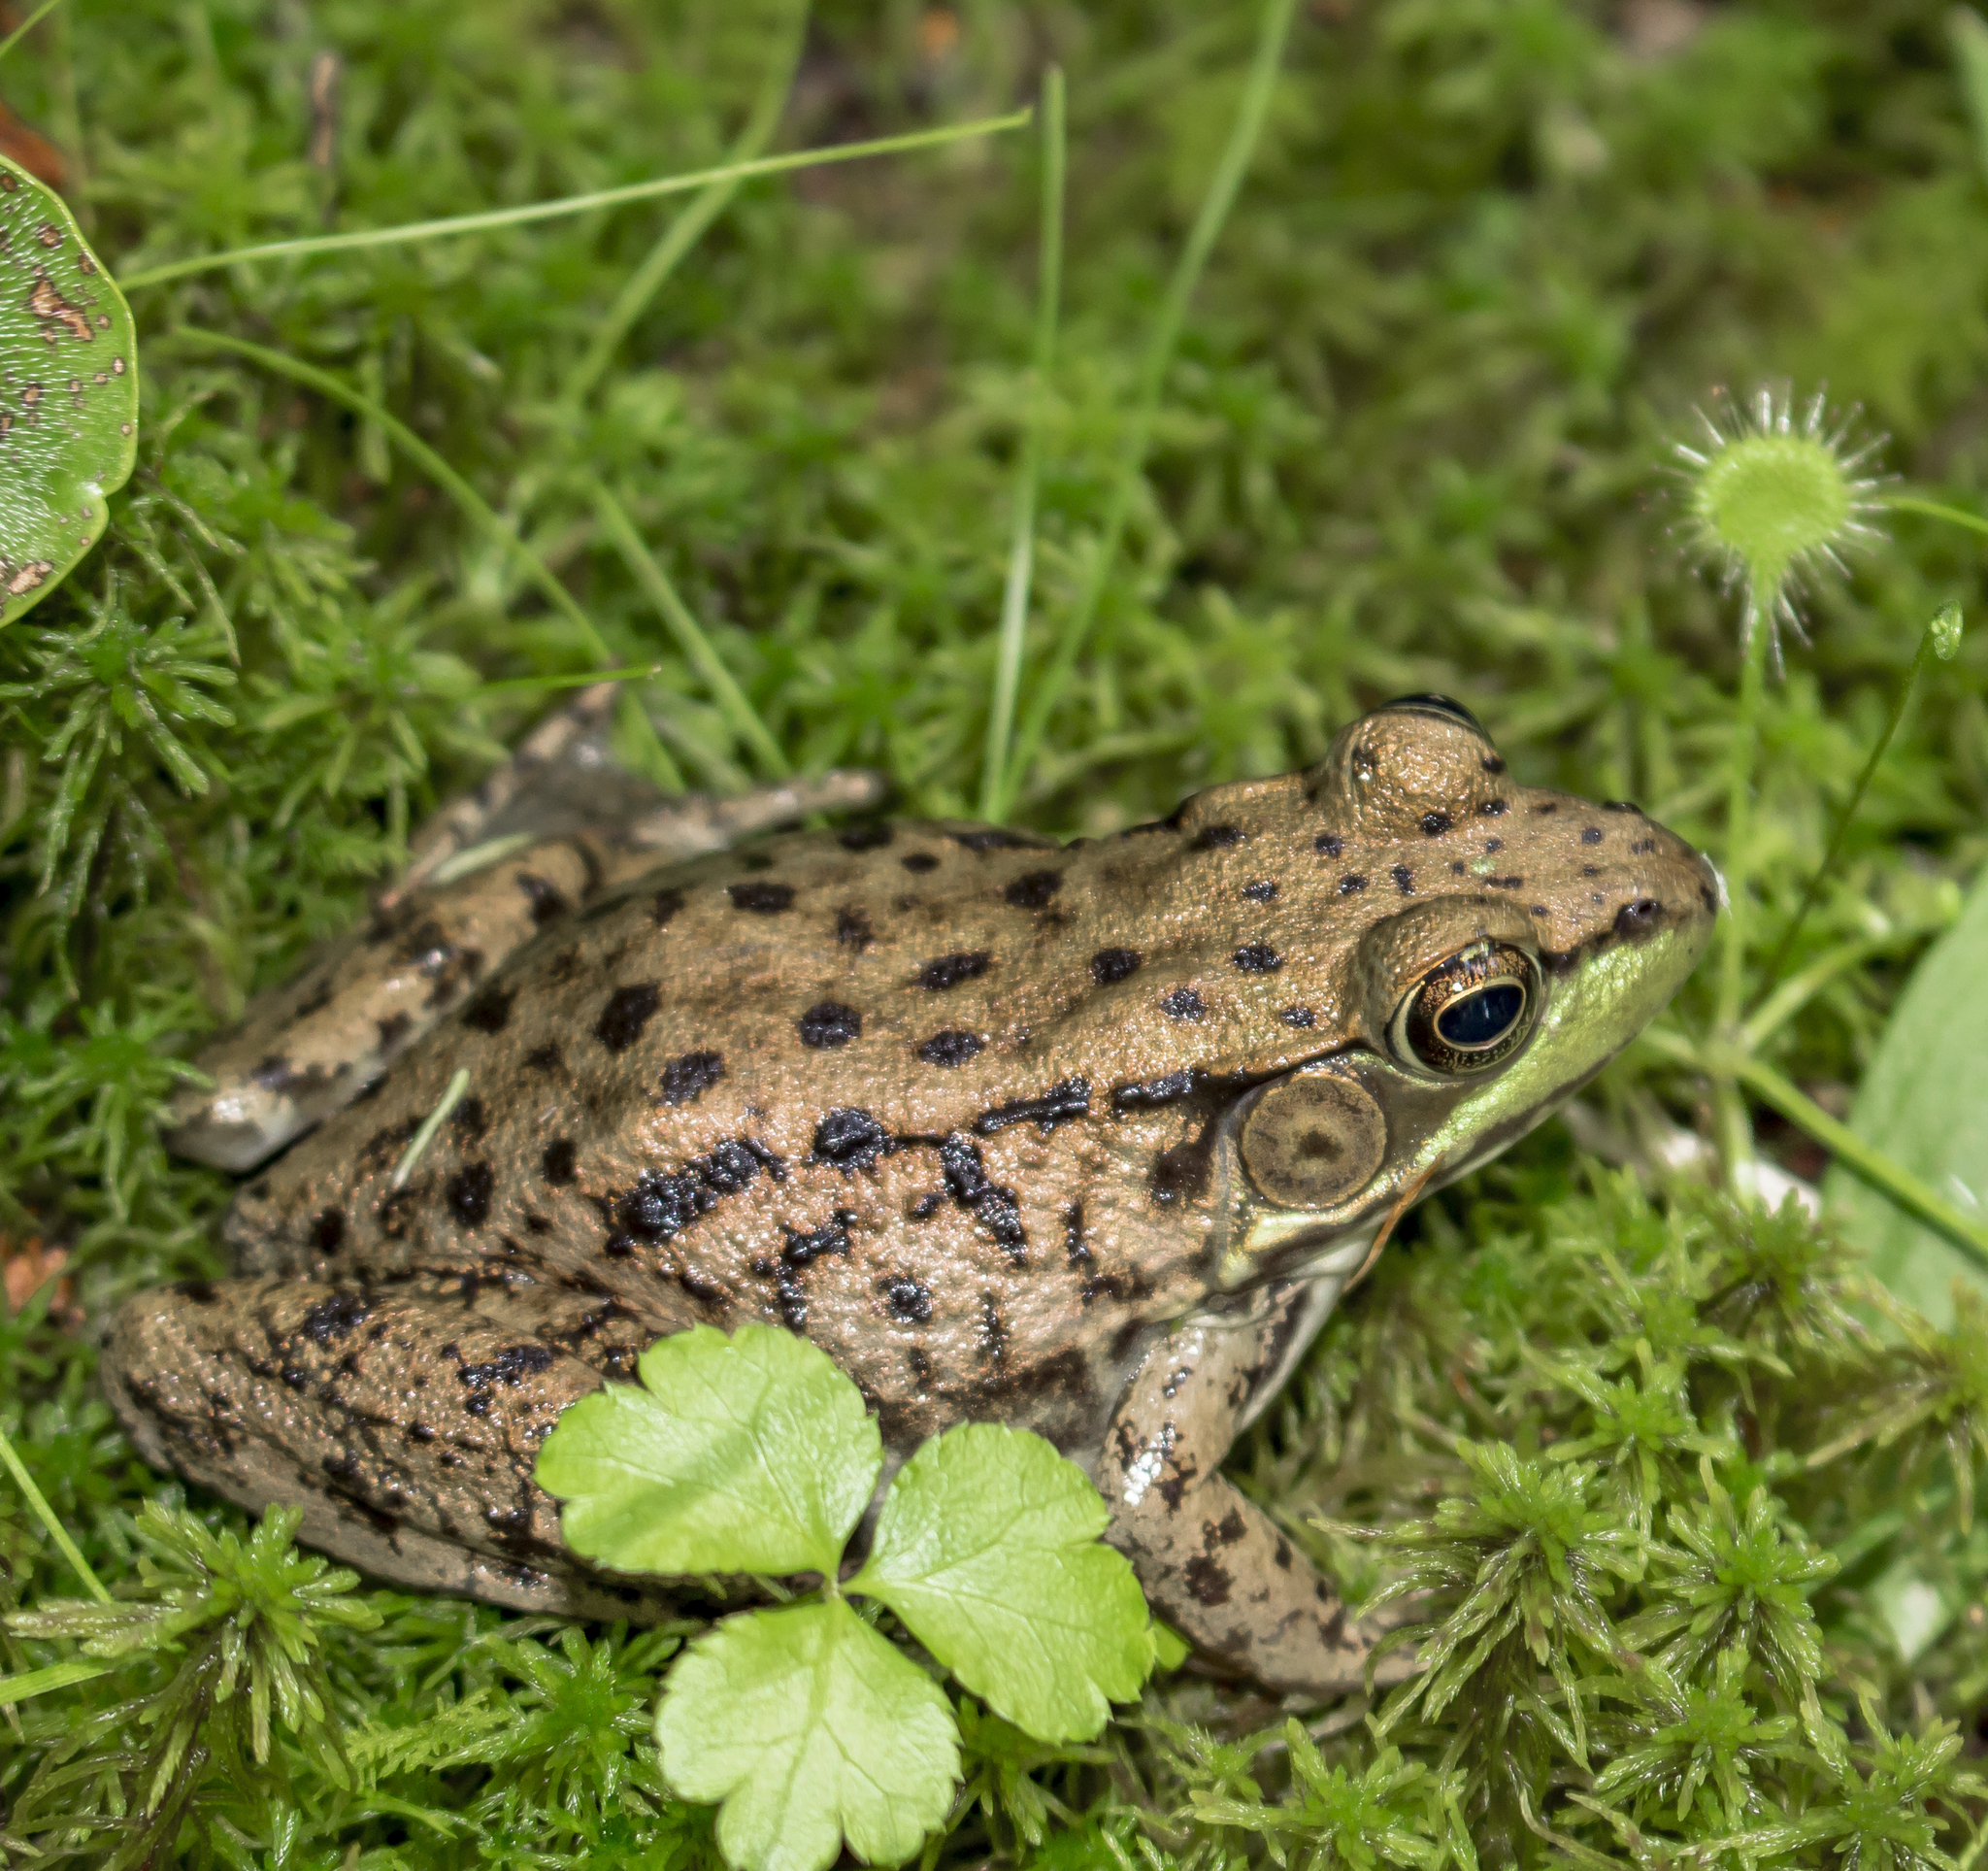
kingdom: Animalia
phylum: Chordata
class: Amphibia
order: Anura
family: Ranidae
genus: Lithobates
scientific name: Lithobates clamitans
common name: Green frog
